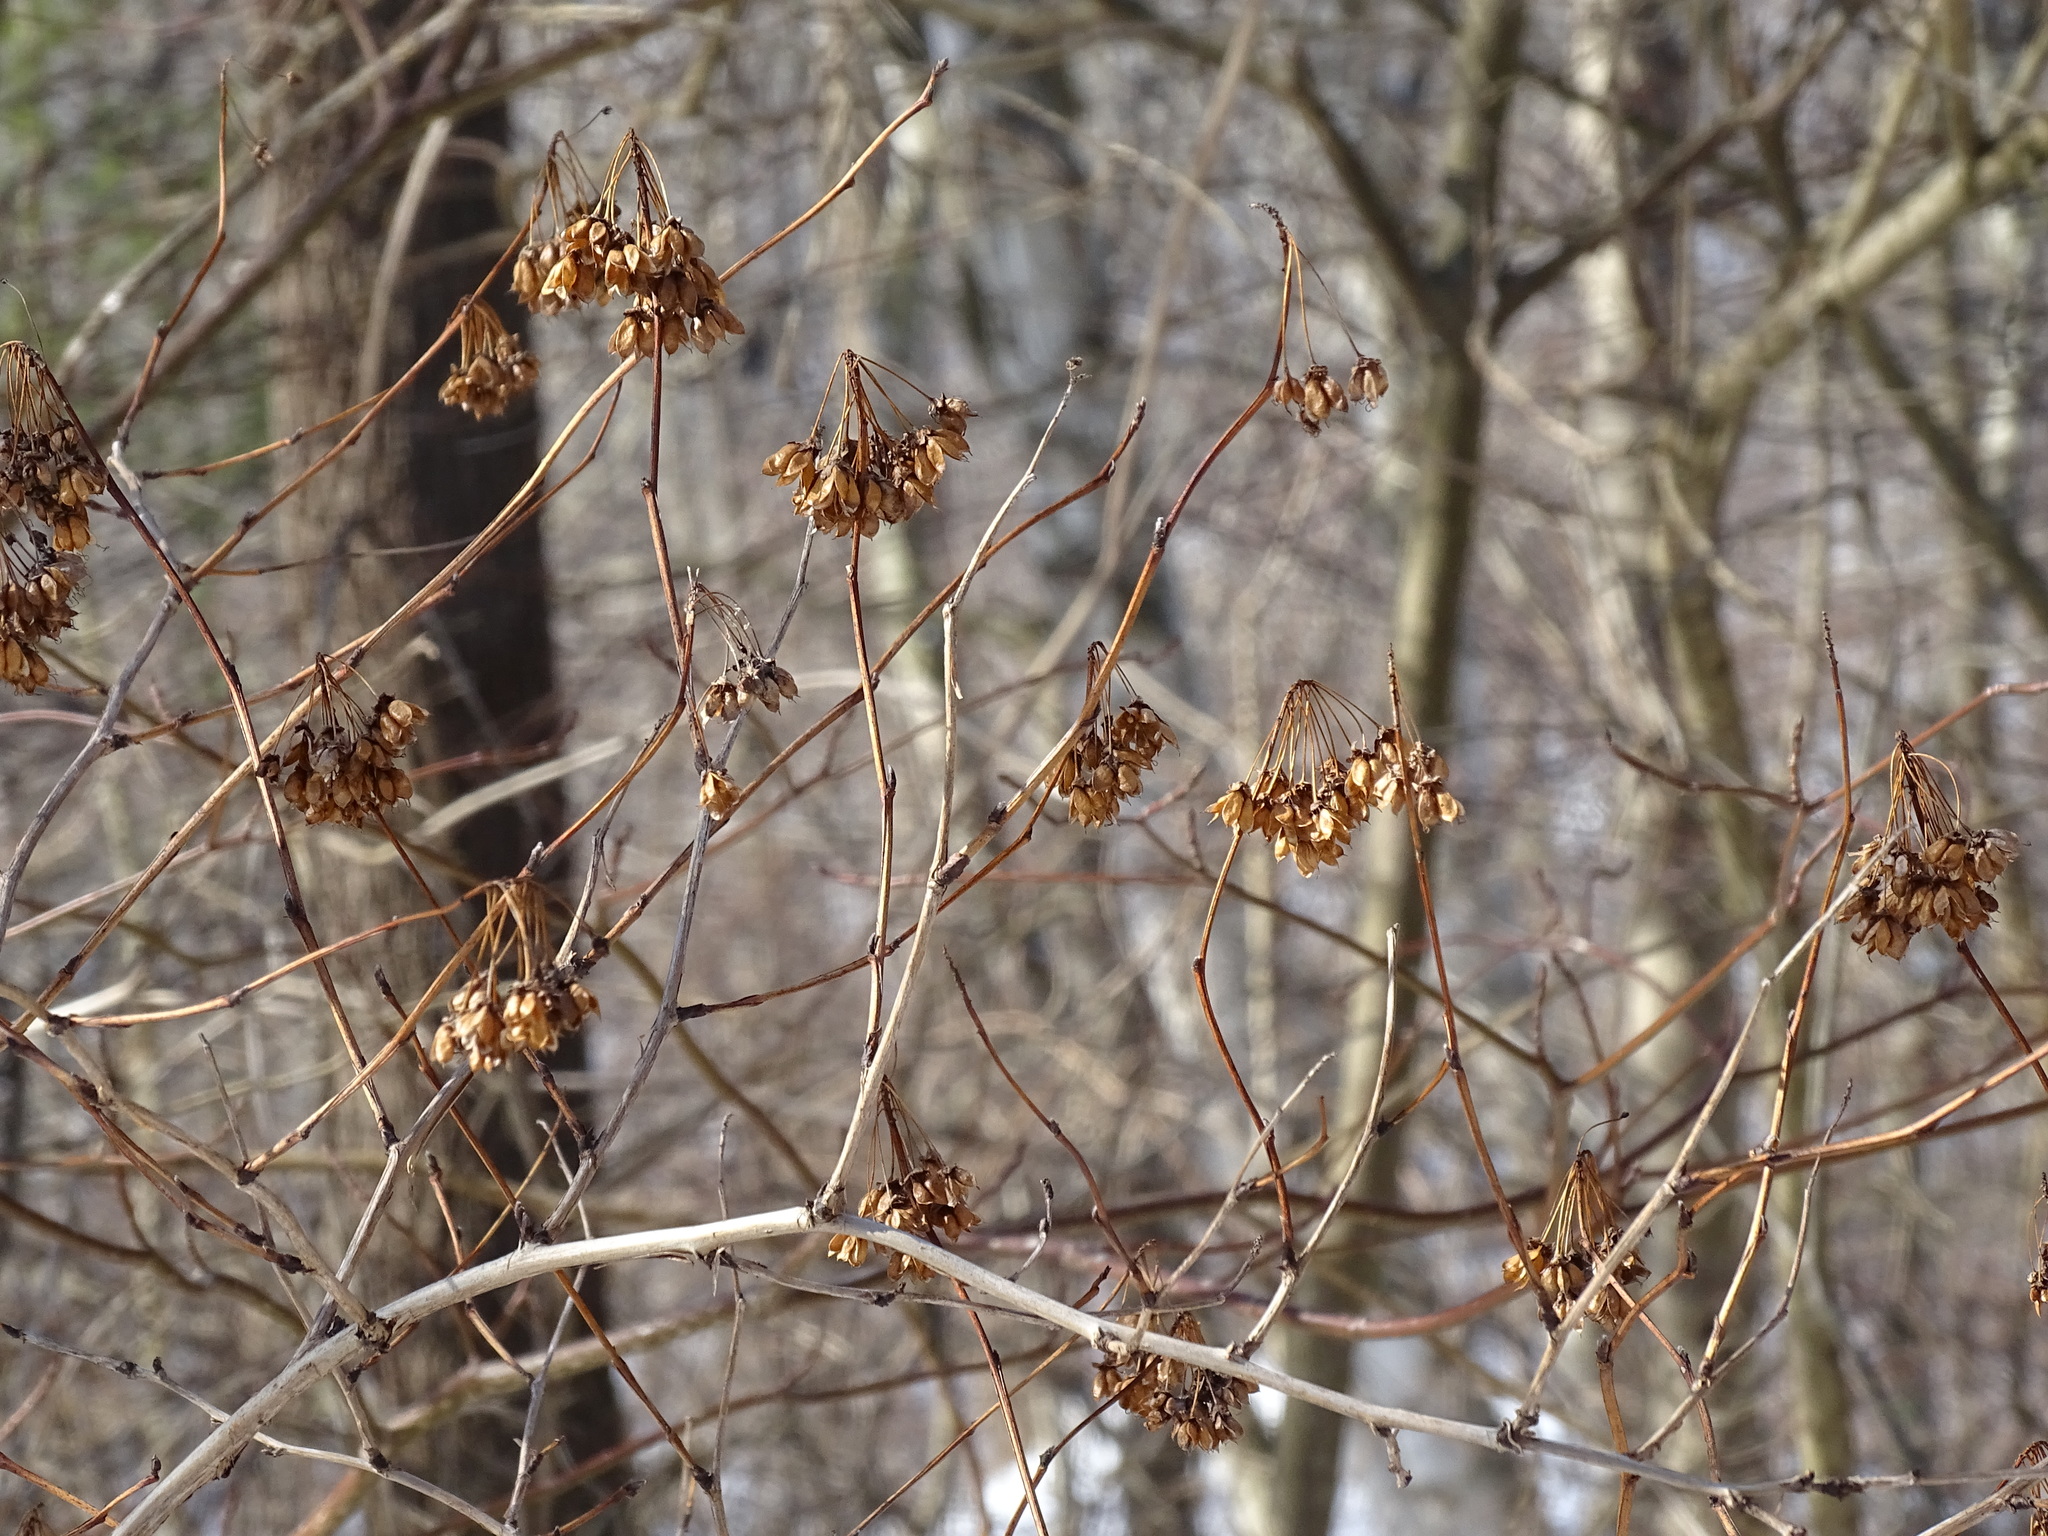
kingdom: Plantae
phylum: Tracheophyta
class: Magnoliopsida
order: Rosales
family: Rosaceae
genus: Physocarpus
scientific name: Physocarpus opulifolius
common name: Ninebark
